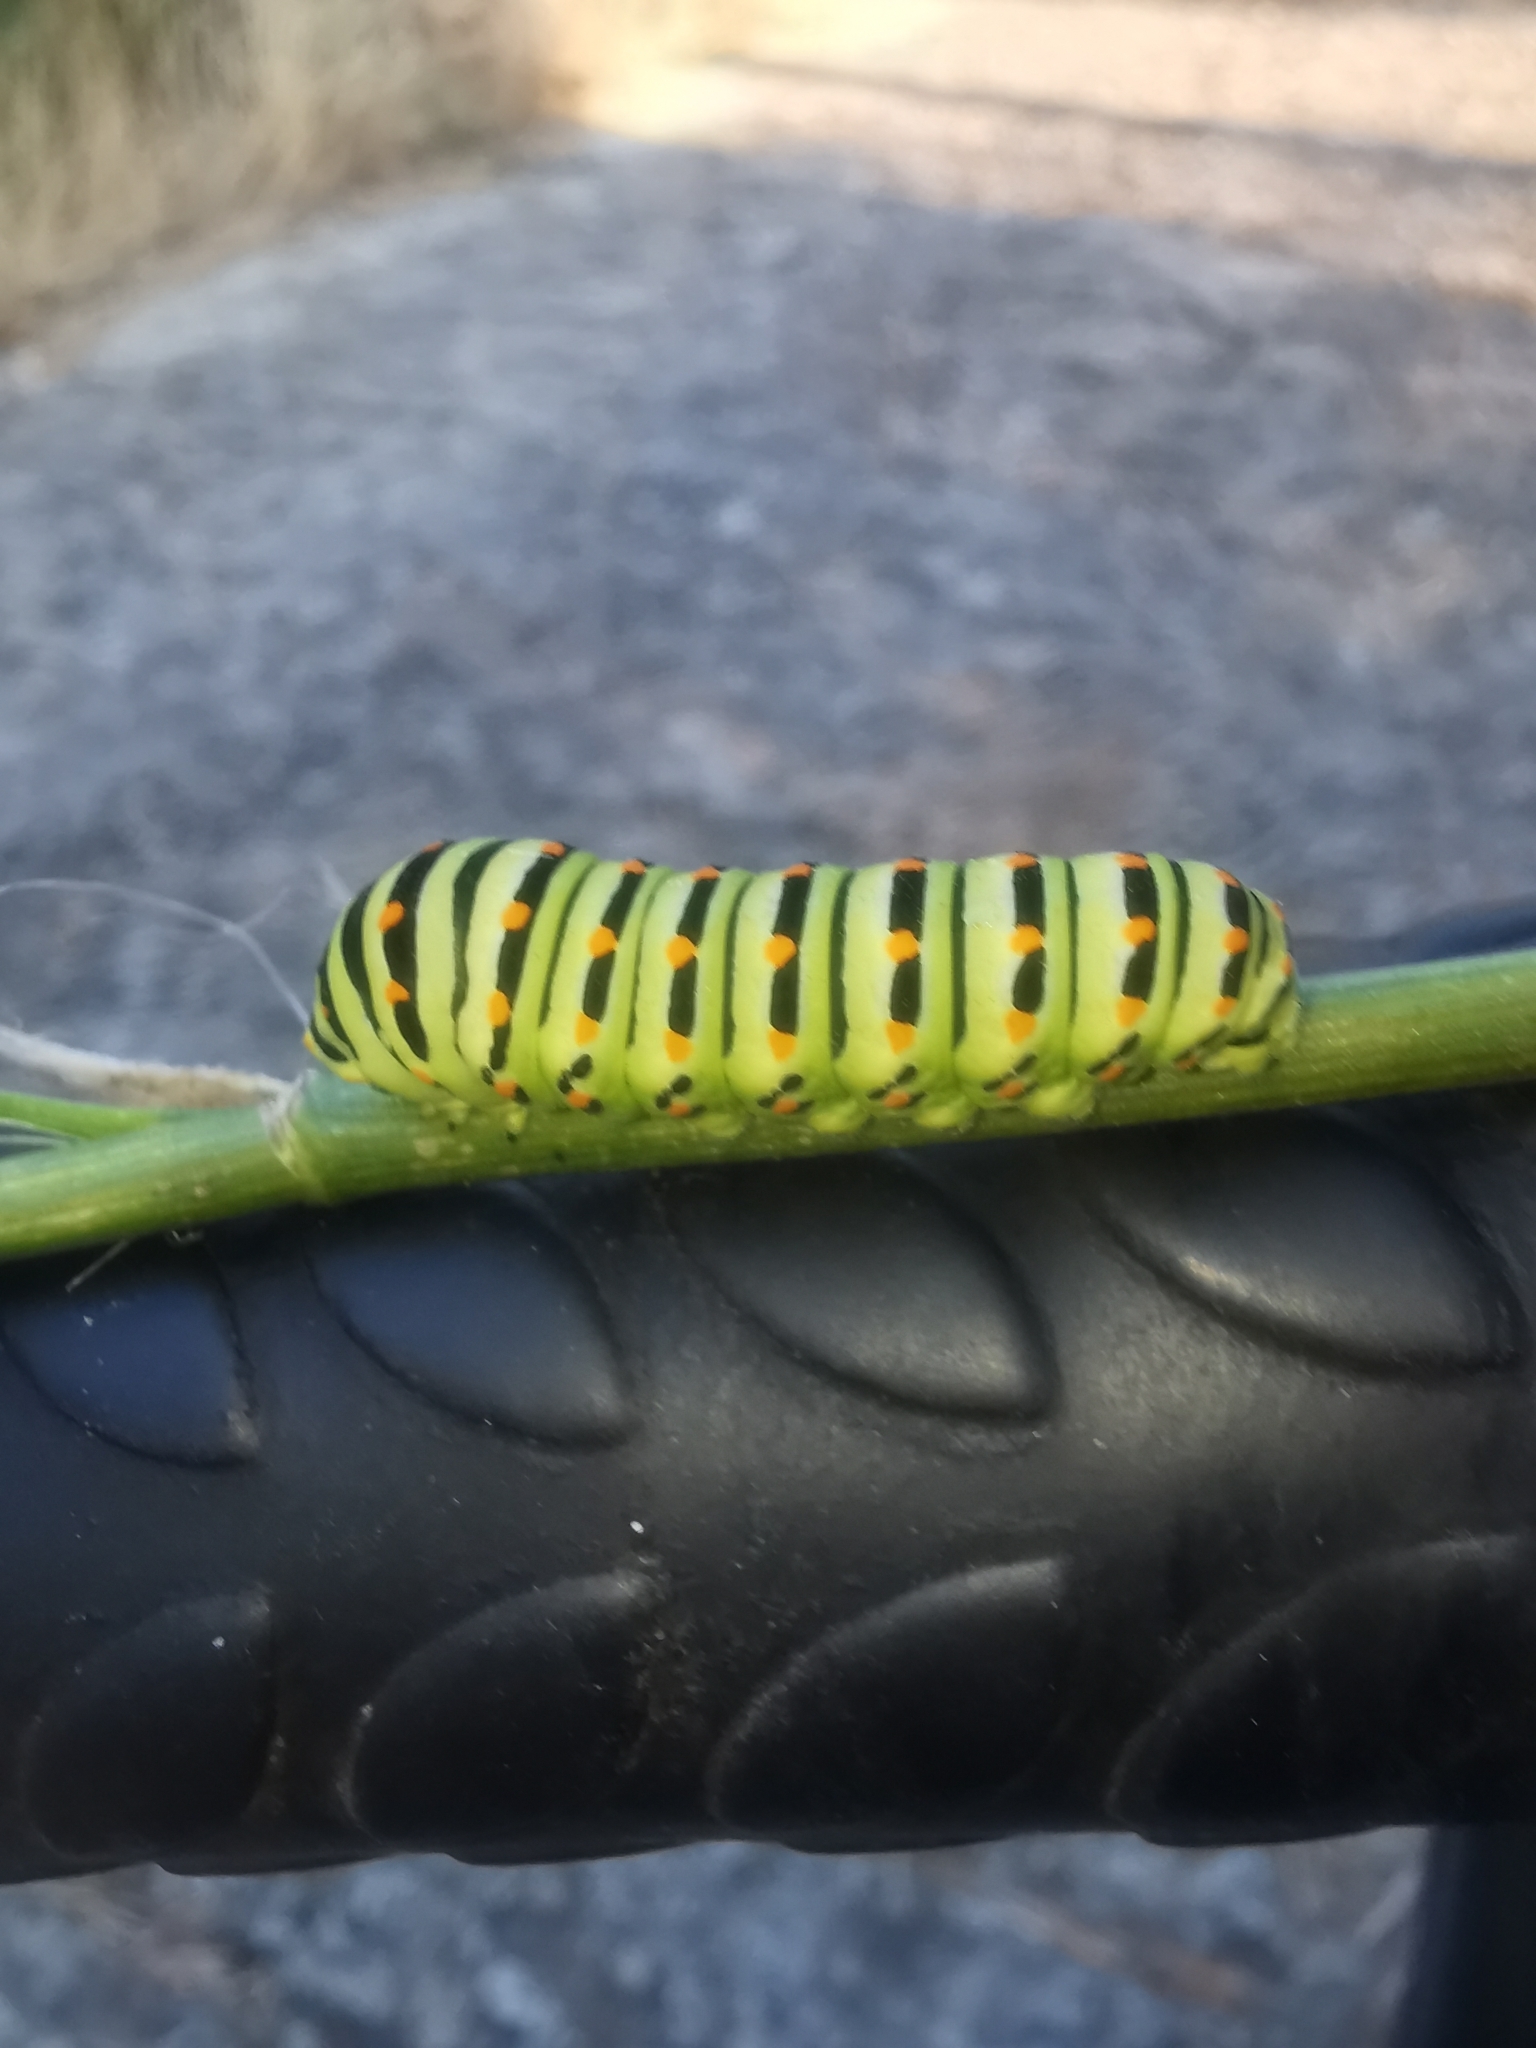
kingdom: Animalia
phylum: Arthropoda
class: Insecta
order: Lepidoptera
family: Papilionidae
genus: Papilio
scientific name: Papilio machaon
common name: Swallowtail
